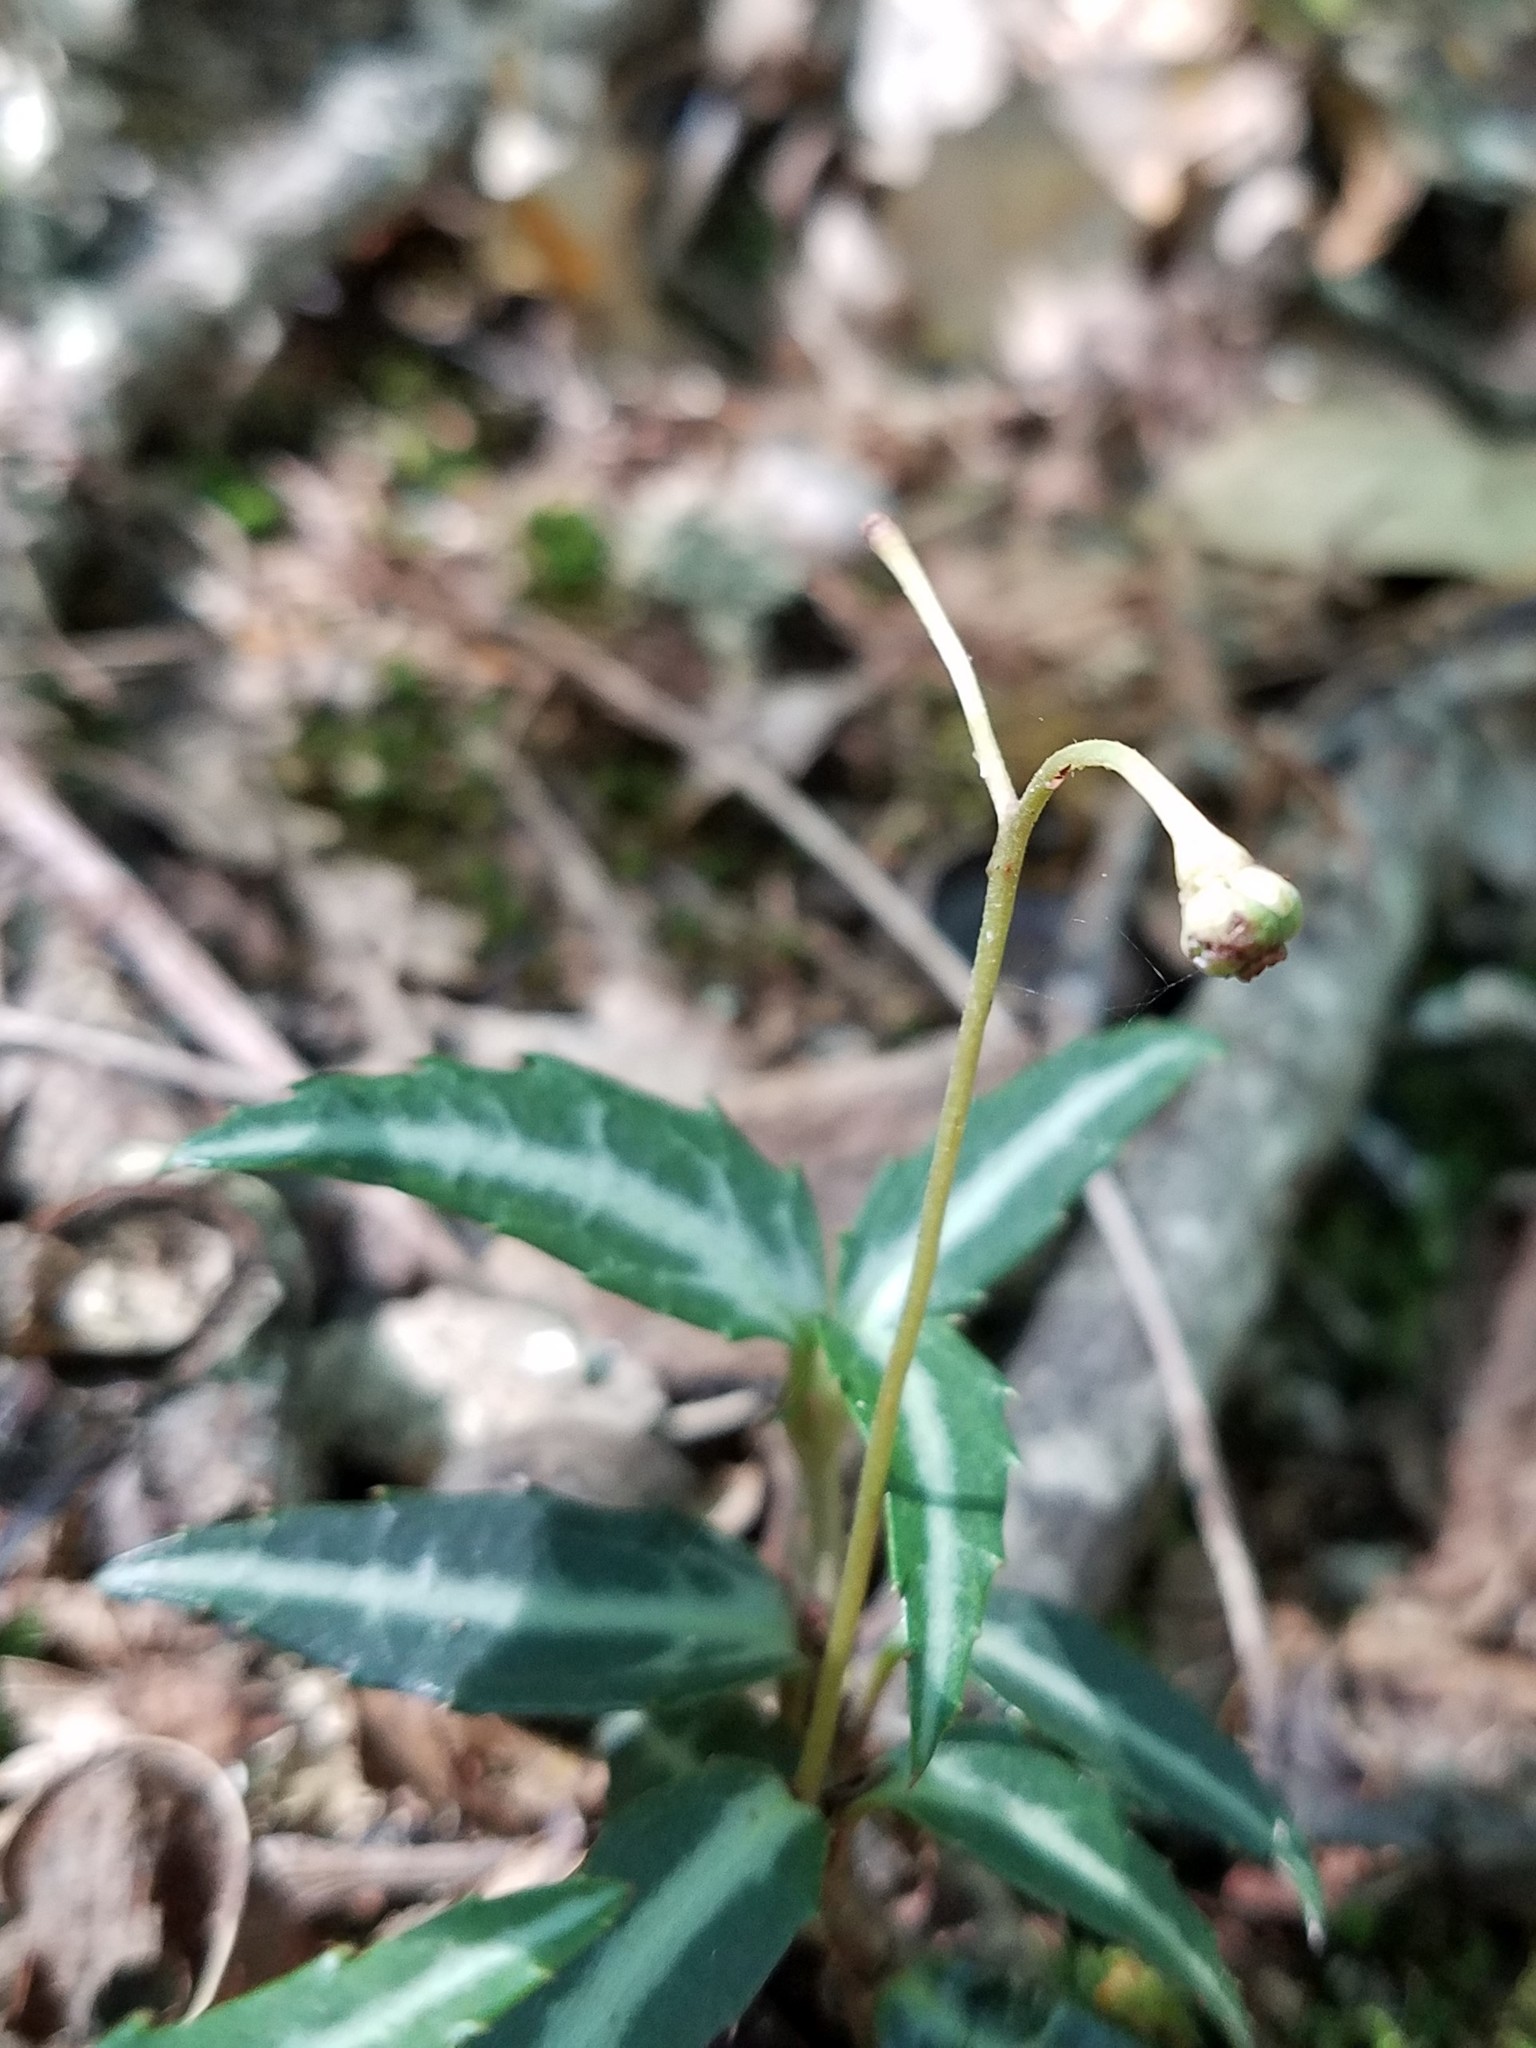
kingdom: Plantae
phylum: Tracheophyta
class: Magnoliopsida
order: Ericales
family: Ericaceae
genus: Chimaphila
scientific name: Chimaphila maculata
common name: Spotted pipsissewa
